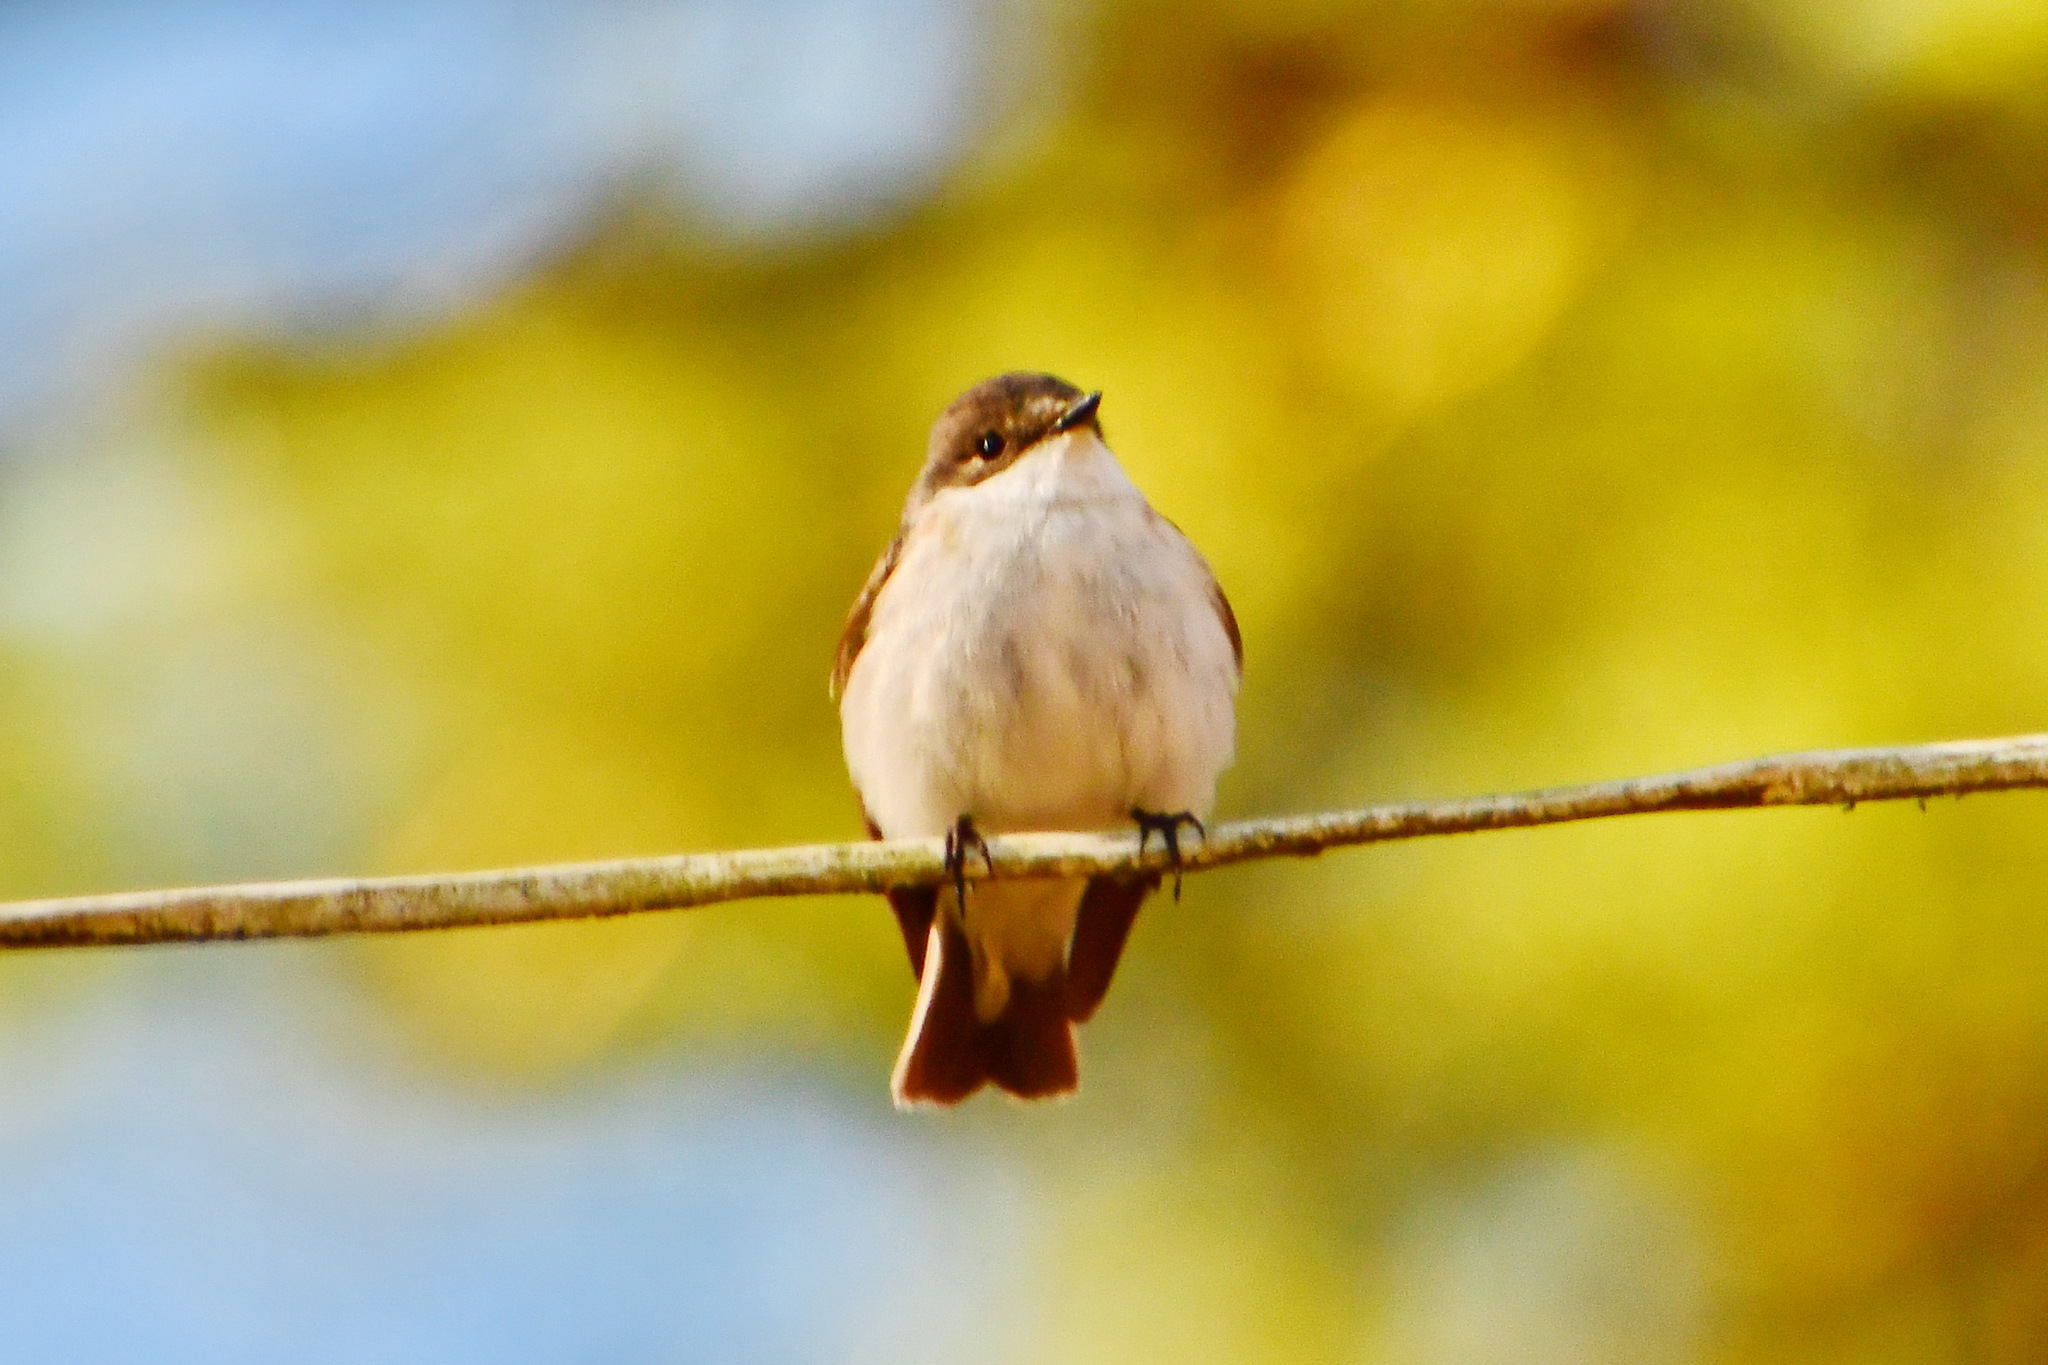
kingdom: Animalia
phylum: Chordata
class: Aves
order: Passeriformes
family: Muscicapidae
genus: Ficedula
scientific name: Ficedula hypoleuca
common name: European pied flycatcher
